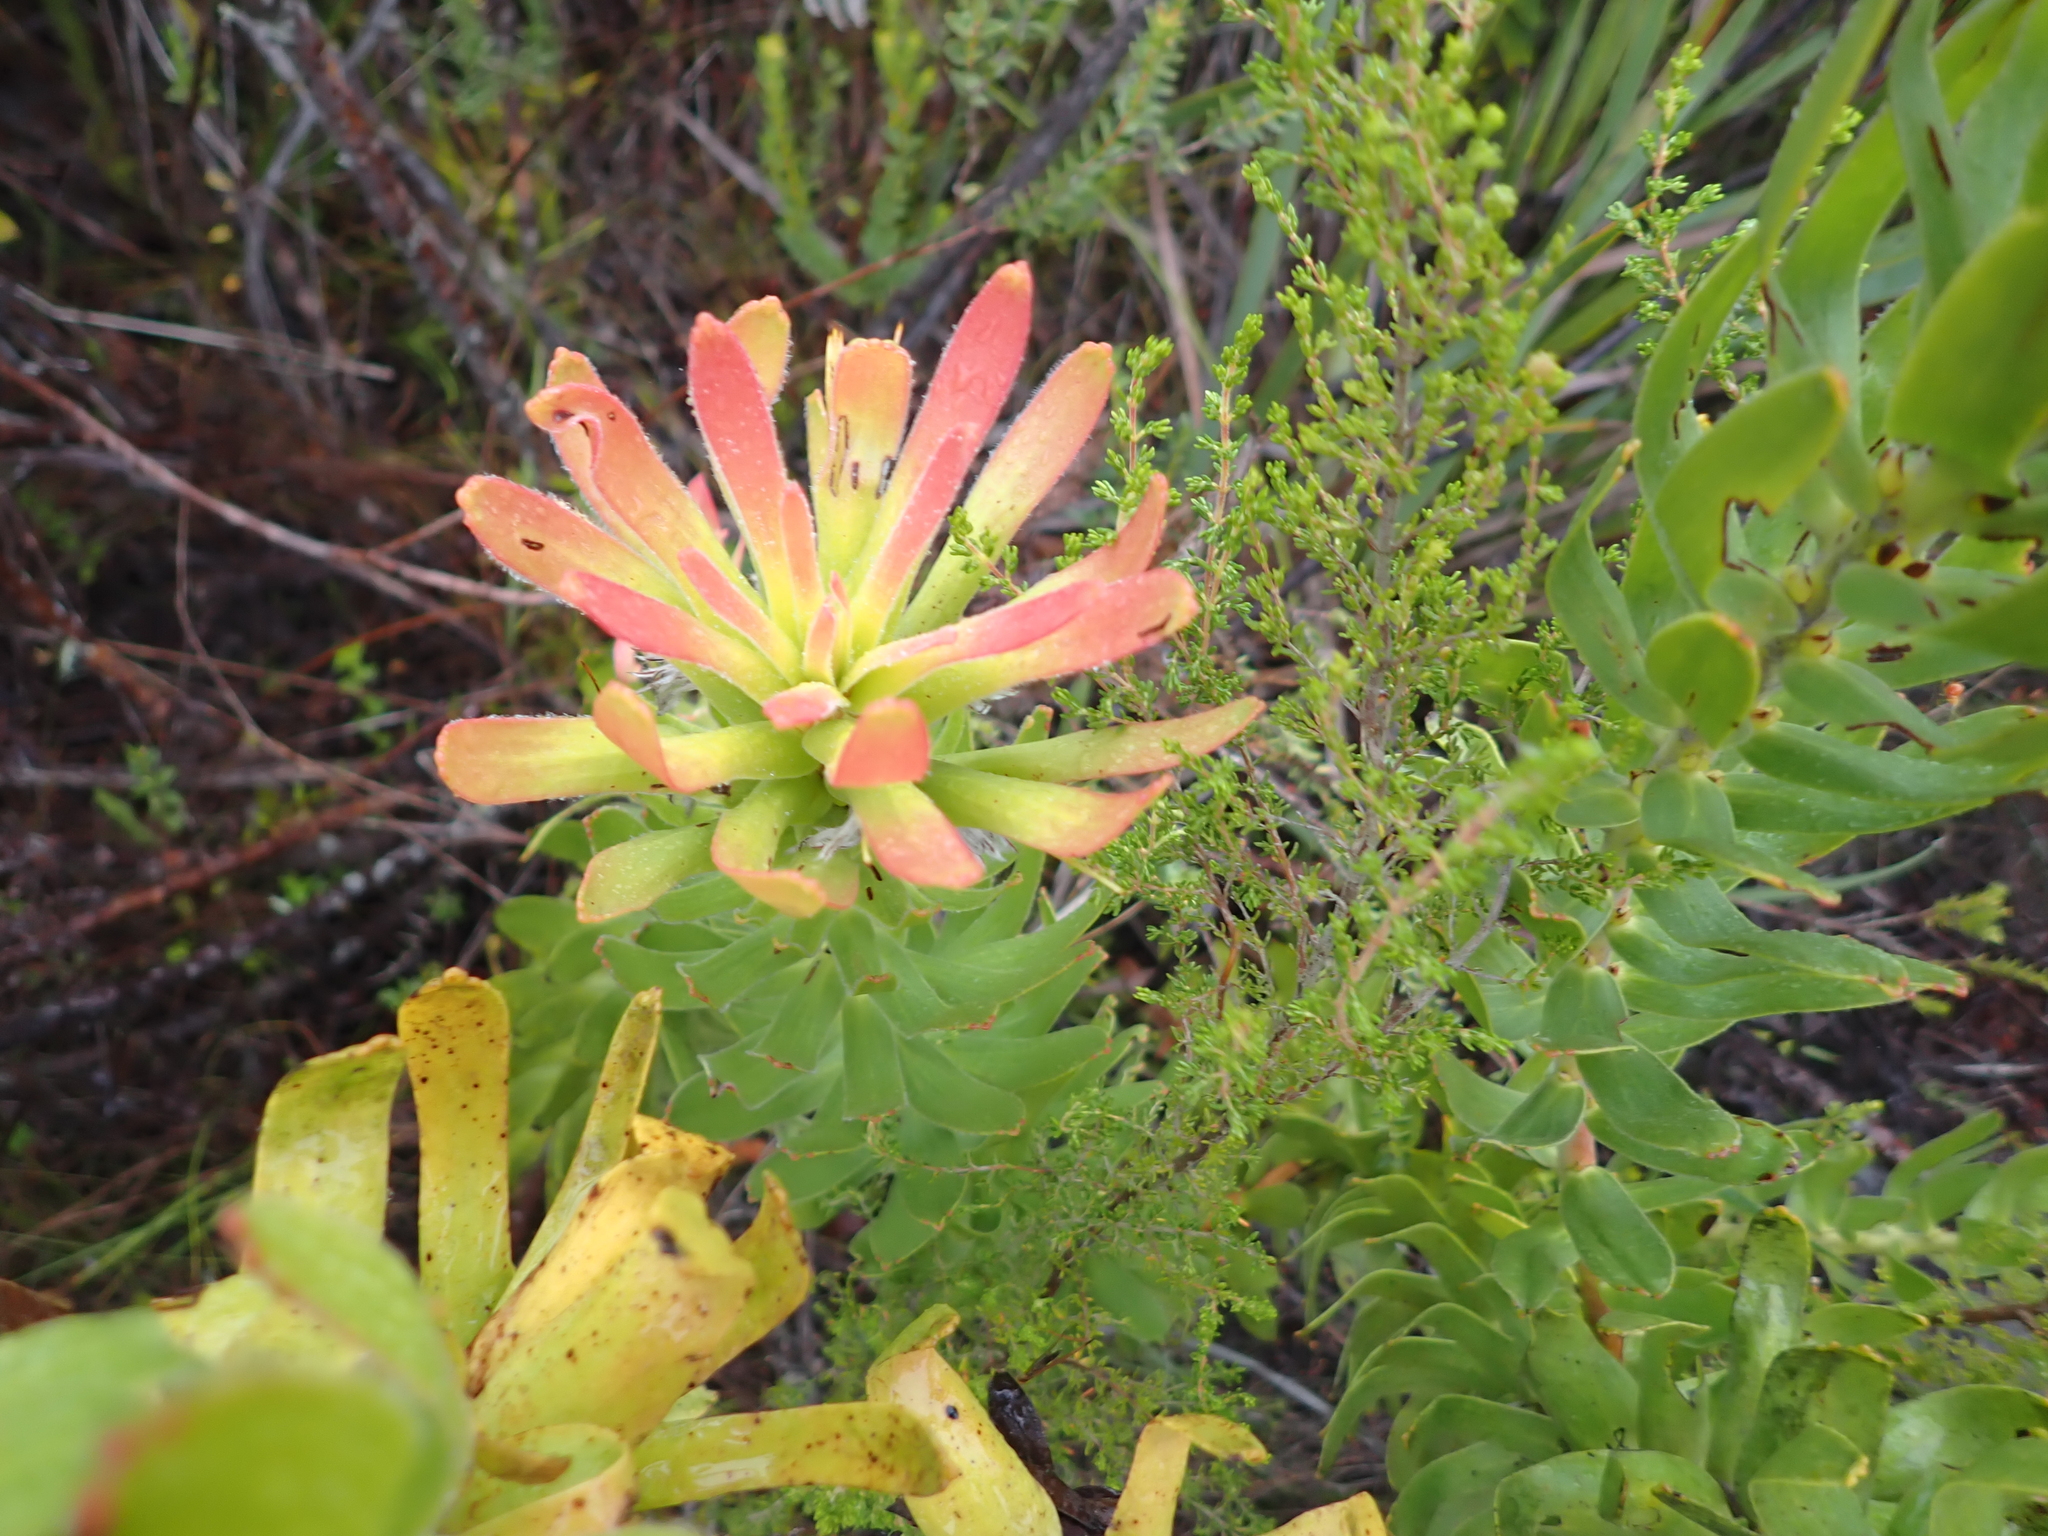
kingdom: Plantae
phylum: Tracheophyta
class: Magnoliopsida
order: Proteales
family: Proteaceae
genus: Mimetes
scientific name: Mimetes cucullatus
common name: Common pagoda
